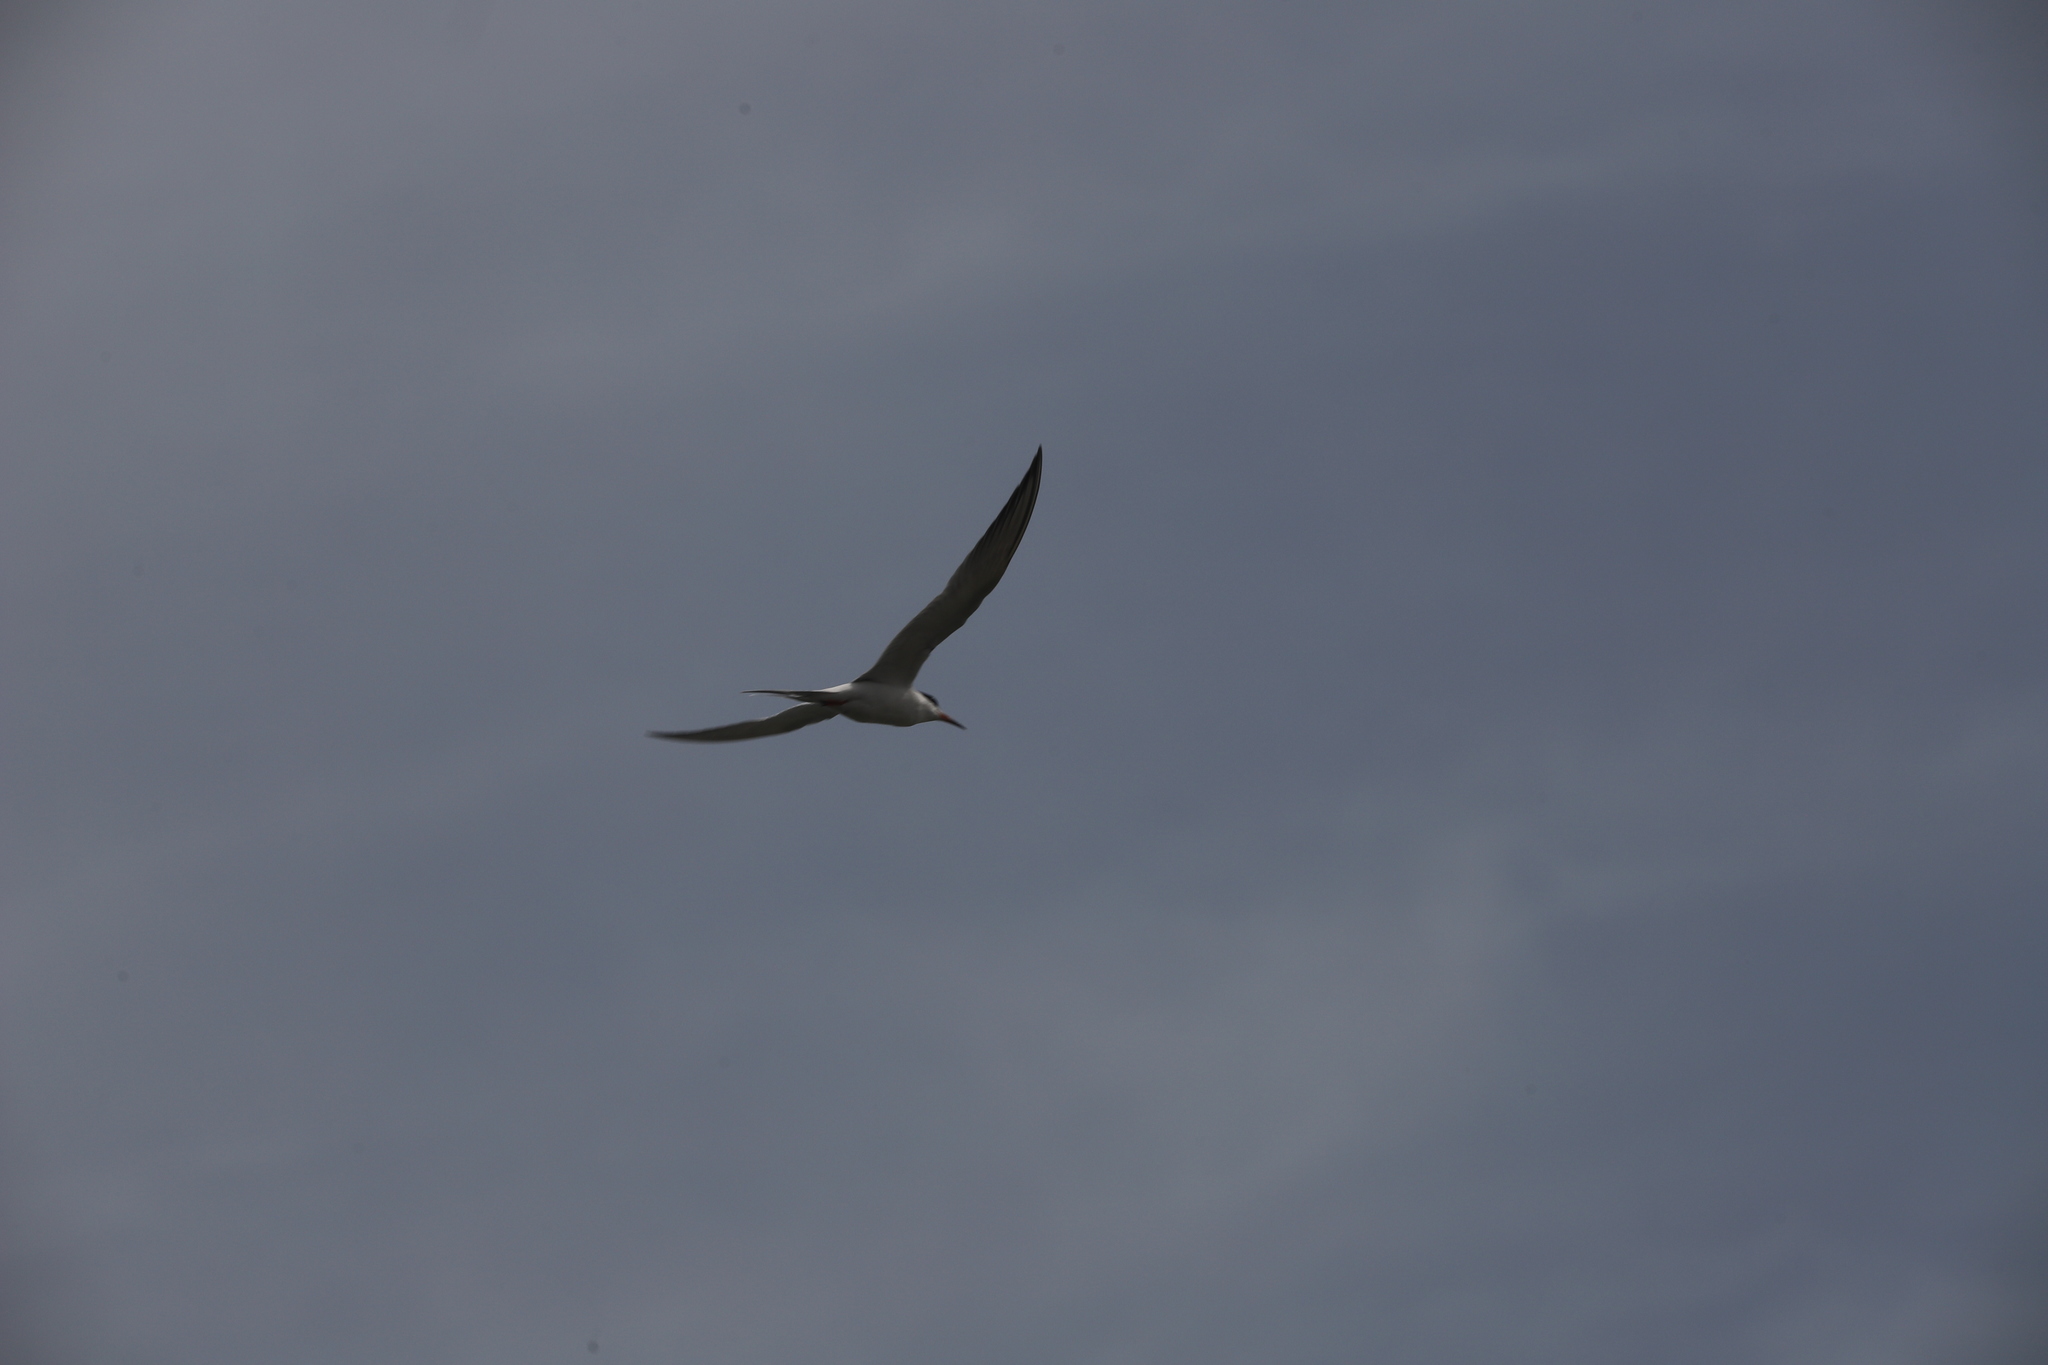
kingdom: Animalia
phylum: Chordata
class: Aves
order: Charadriiformes
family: Laridae
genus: Sterna
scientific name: Sterna forsteri
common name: Forster's tern
